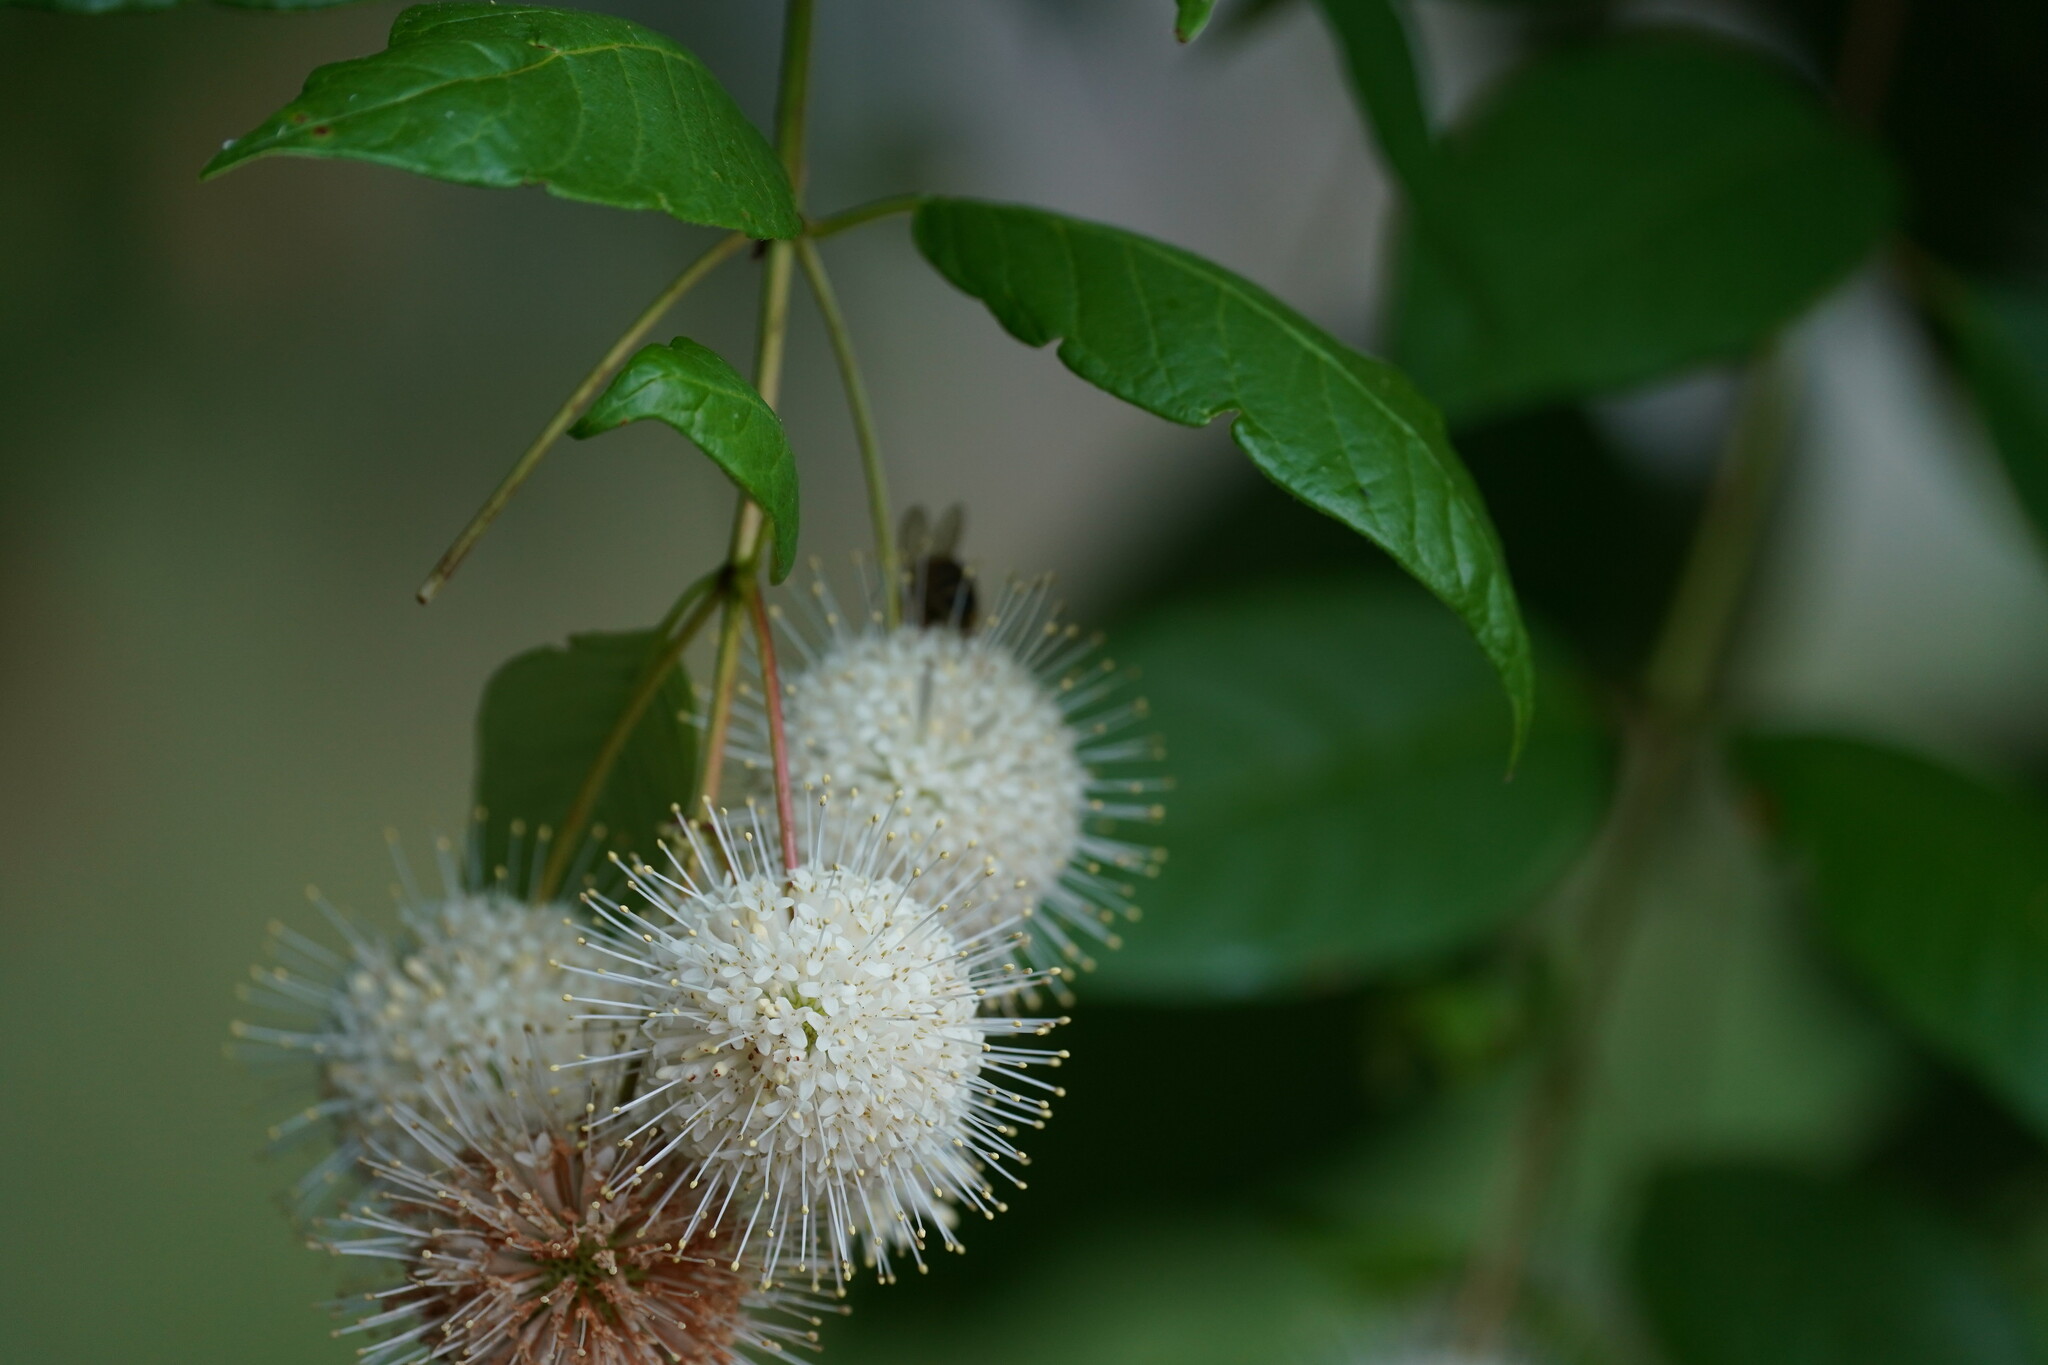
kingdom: Plantae
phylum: Tracheophyta
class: Magnoliopsida
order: Gentianales
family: Rubiaceae
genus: Cephalanthus
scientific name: Cephalanthus occidentalis
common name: Button-willow
